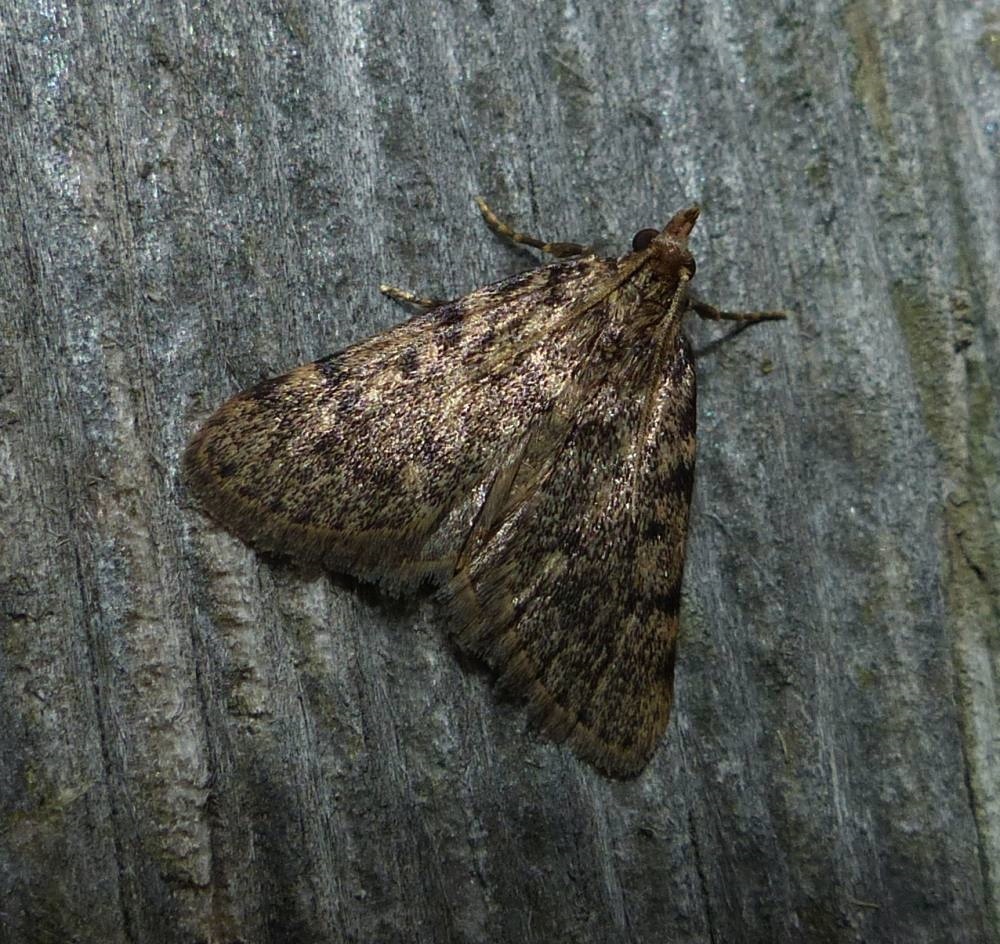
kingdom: Animalia
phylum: Arthropoda
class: Insecta
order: Lepidoptera
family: Pyralidae
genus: Aglossa
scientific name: Aglossa pinguinalis
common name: Large tabby
